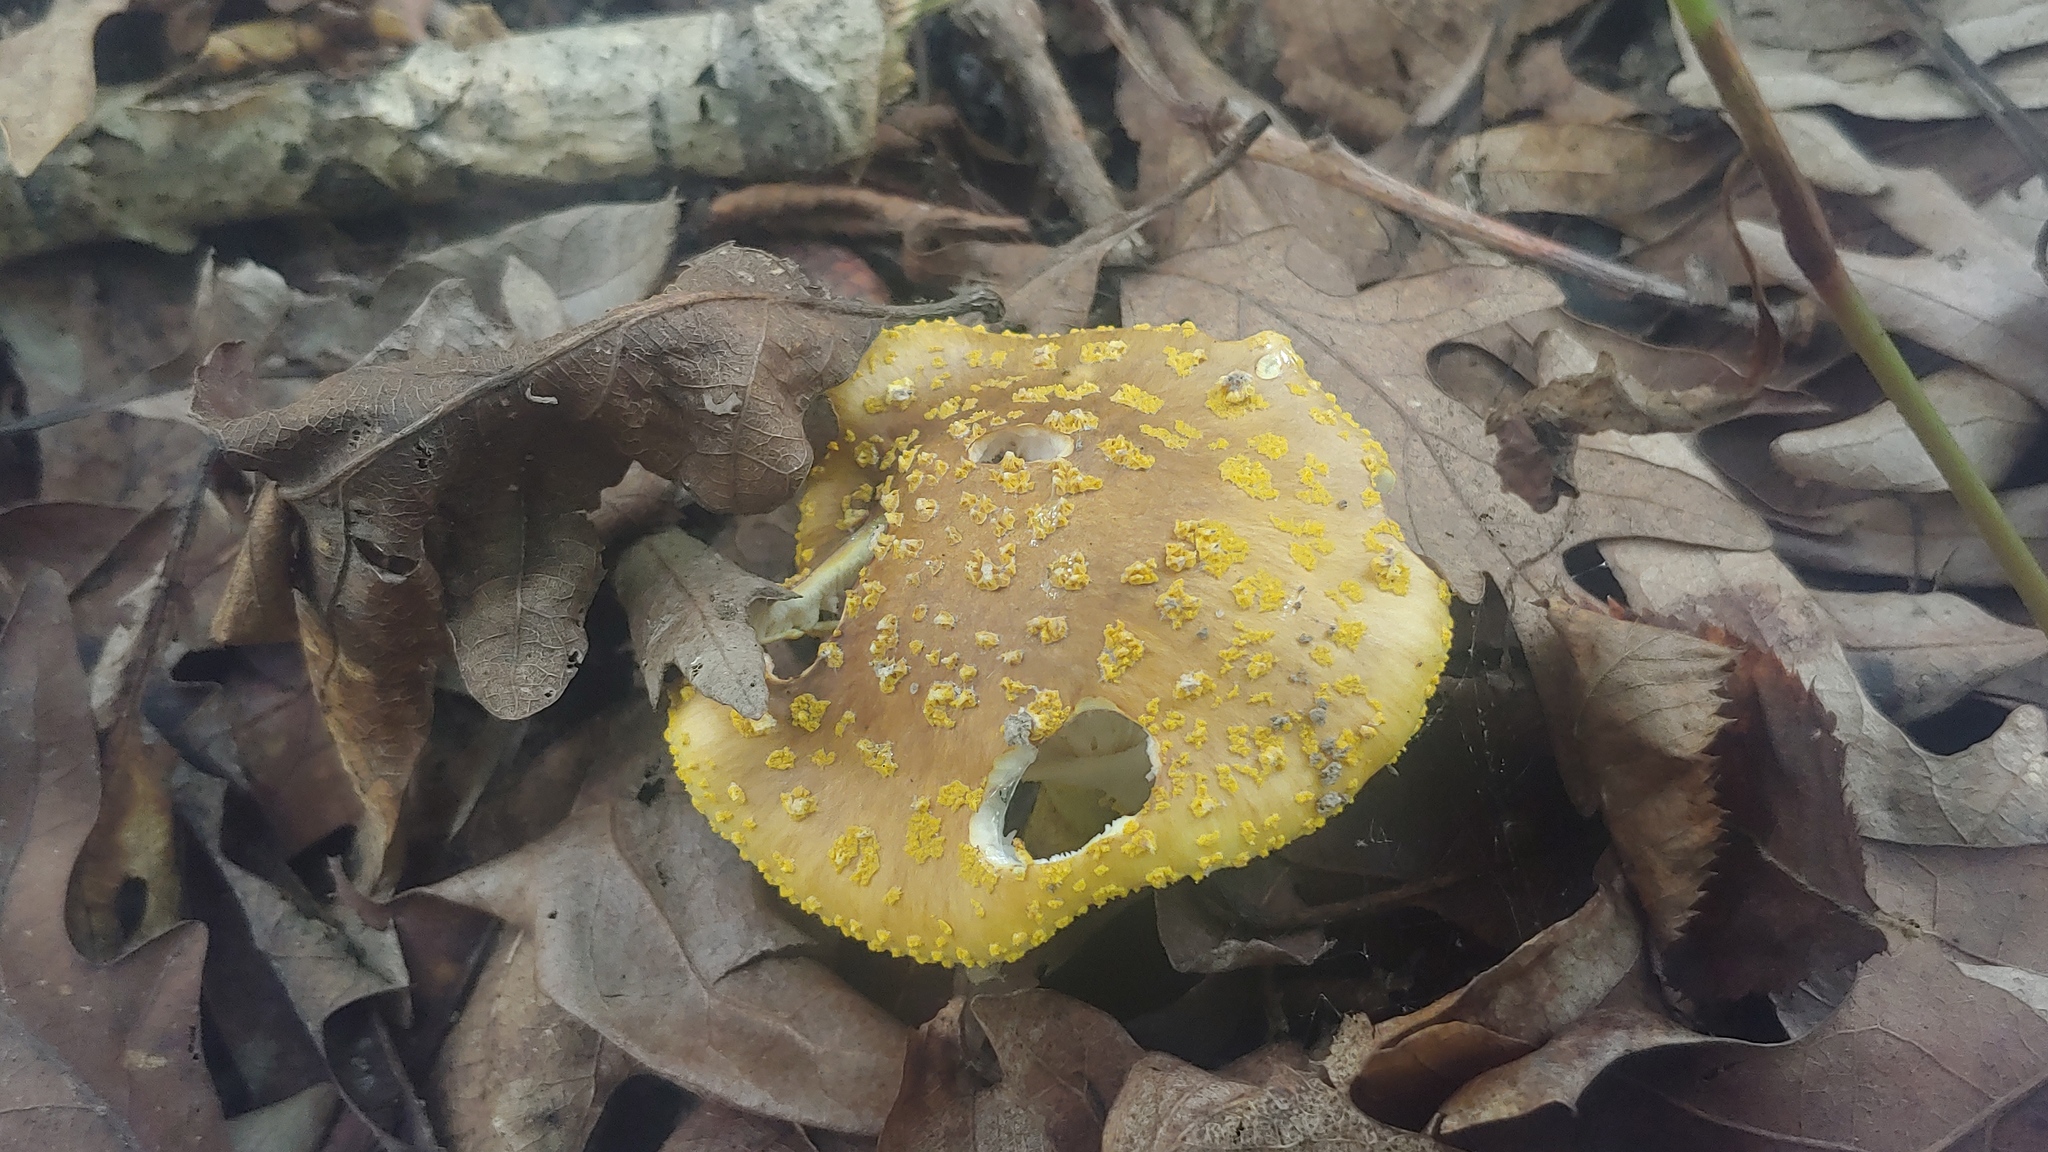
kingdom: Fungi
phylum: Basidiomycota
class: Agaricomycetes
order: Agaricales
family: Amanitaceae
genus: Amanita
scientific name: Amanita flavorubens
